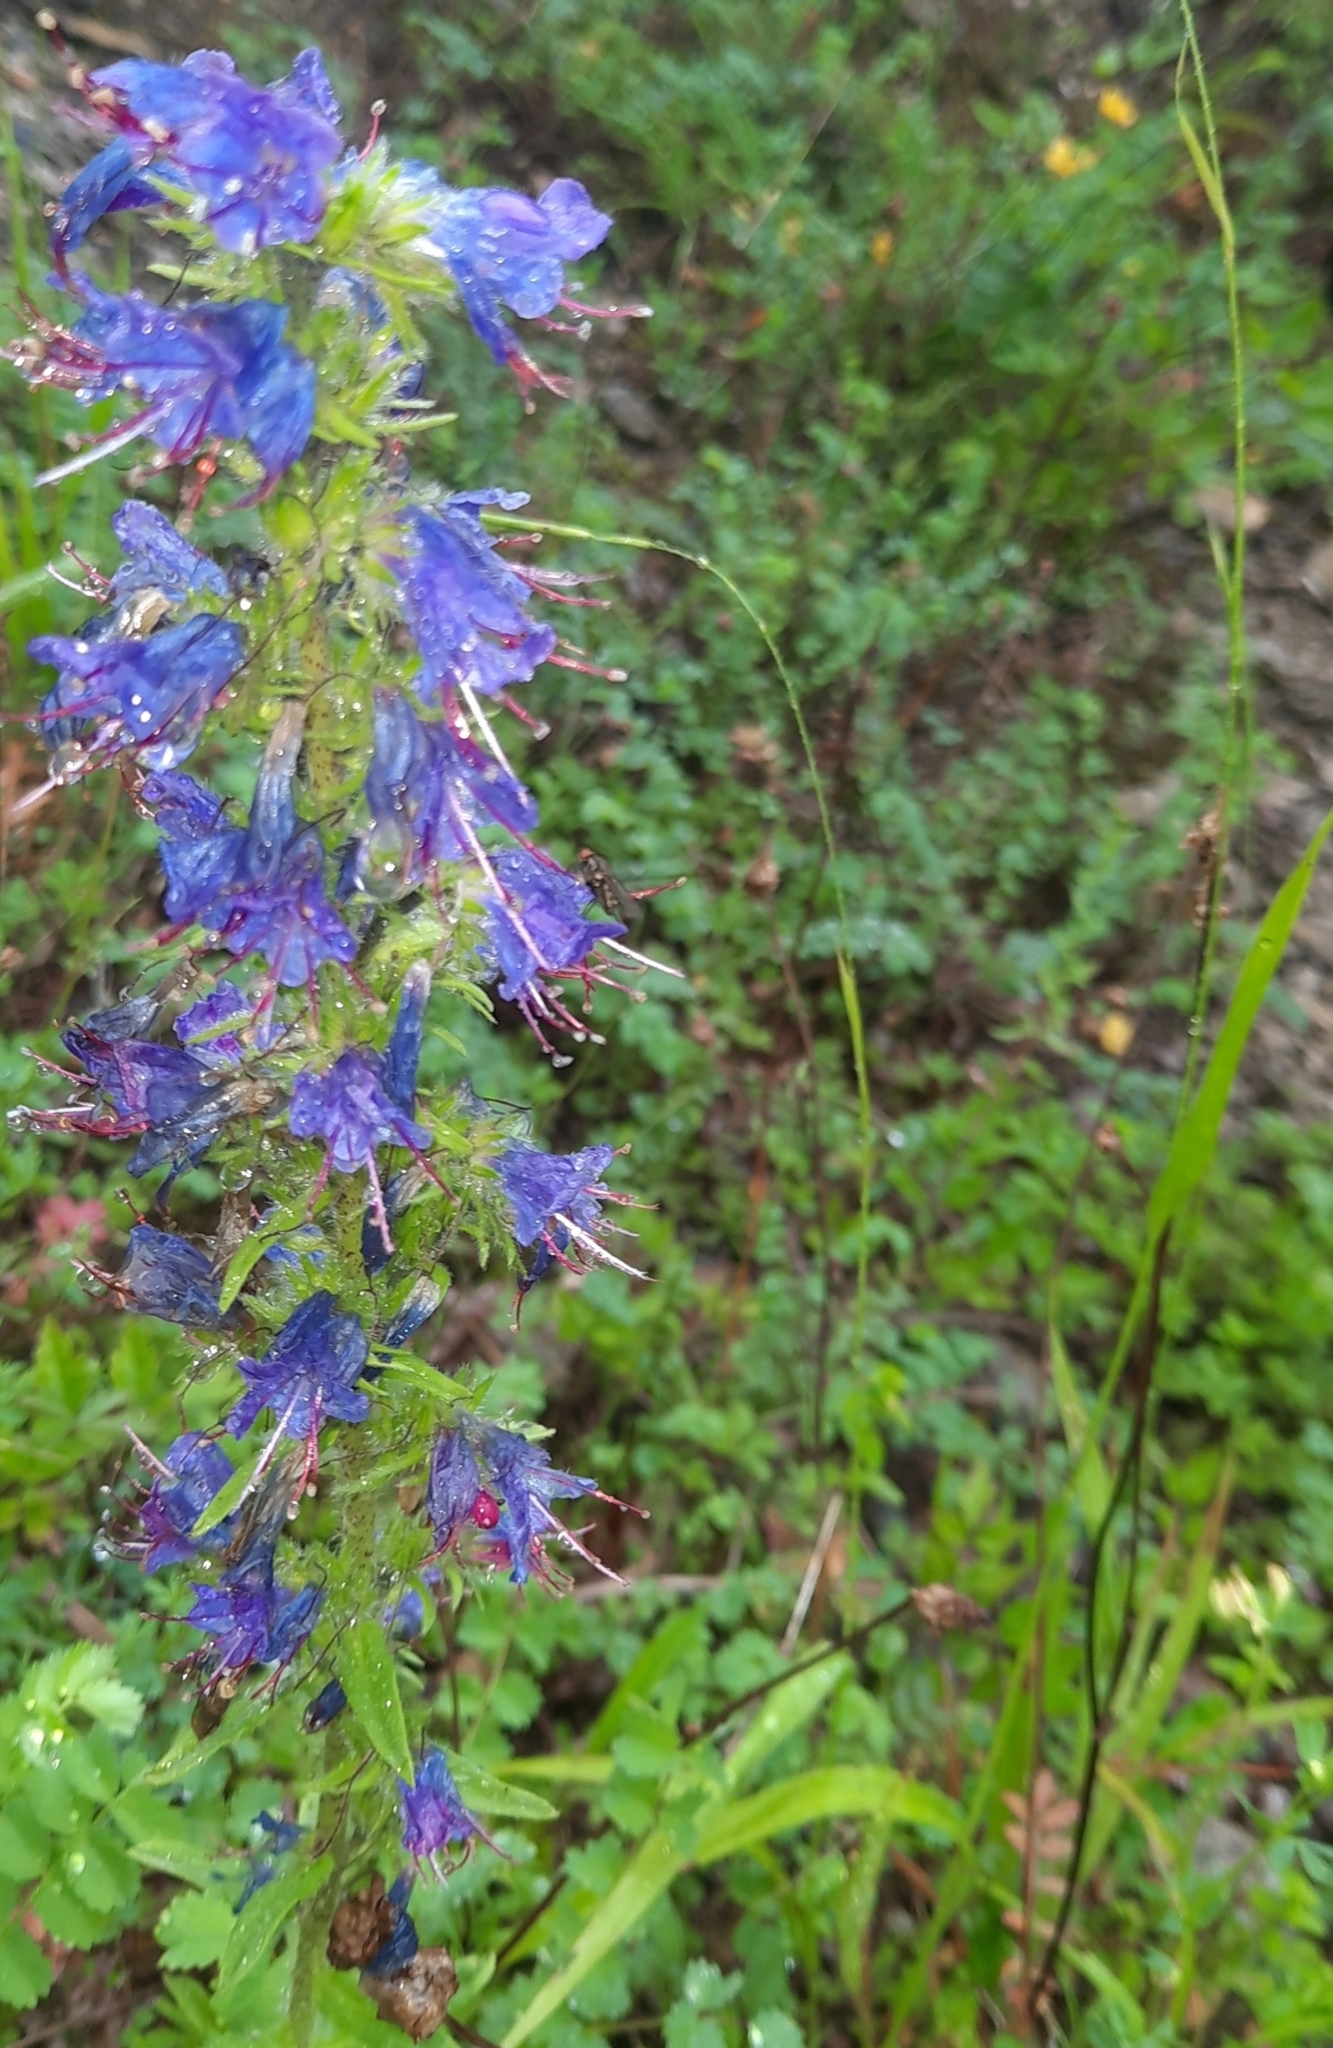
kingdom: Plantae
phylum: Tracheophyta
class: Magnoliopsida
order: Boraginales
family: Boraginaceae
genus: Echium
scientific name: Echium vulgare
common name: Common viper's bugloss
